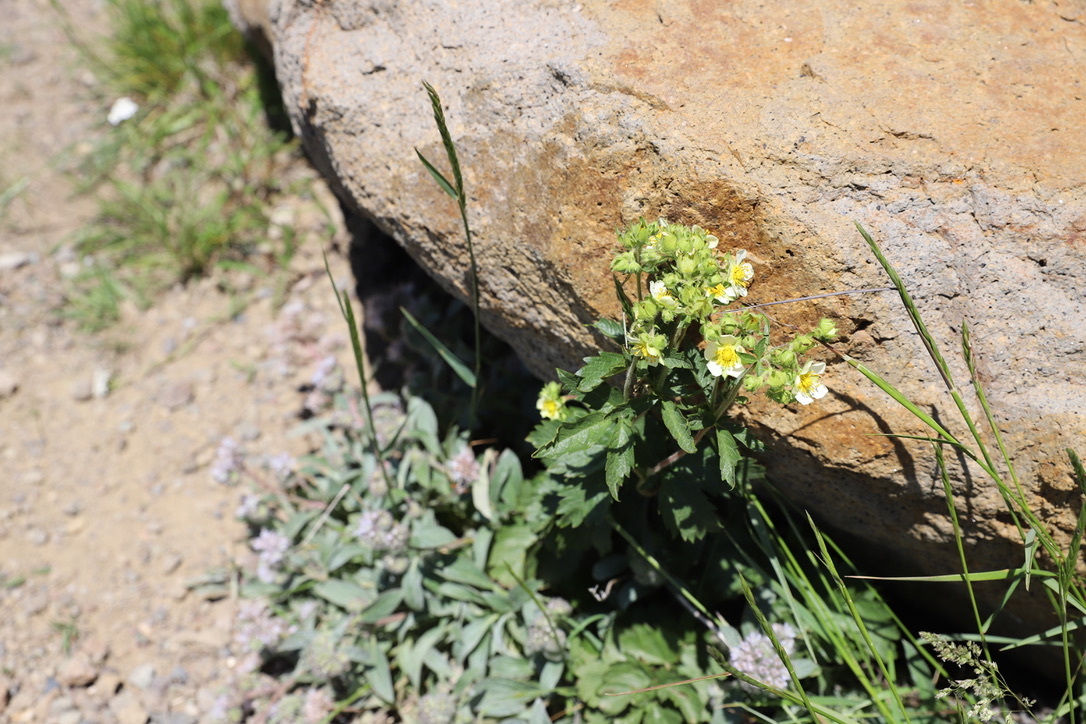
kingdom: Plantae
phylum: Tracheophyta
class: Magnoliopsida
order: Rosales
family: Rosaceae
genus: Drymocallis
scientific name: Drymocallis arguta
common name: Tall cinquefoil
